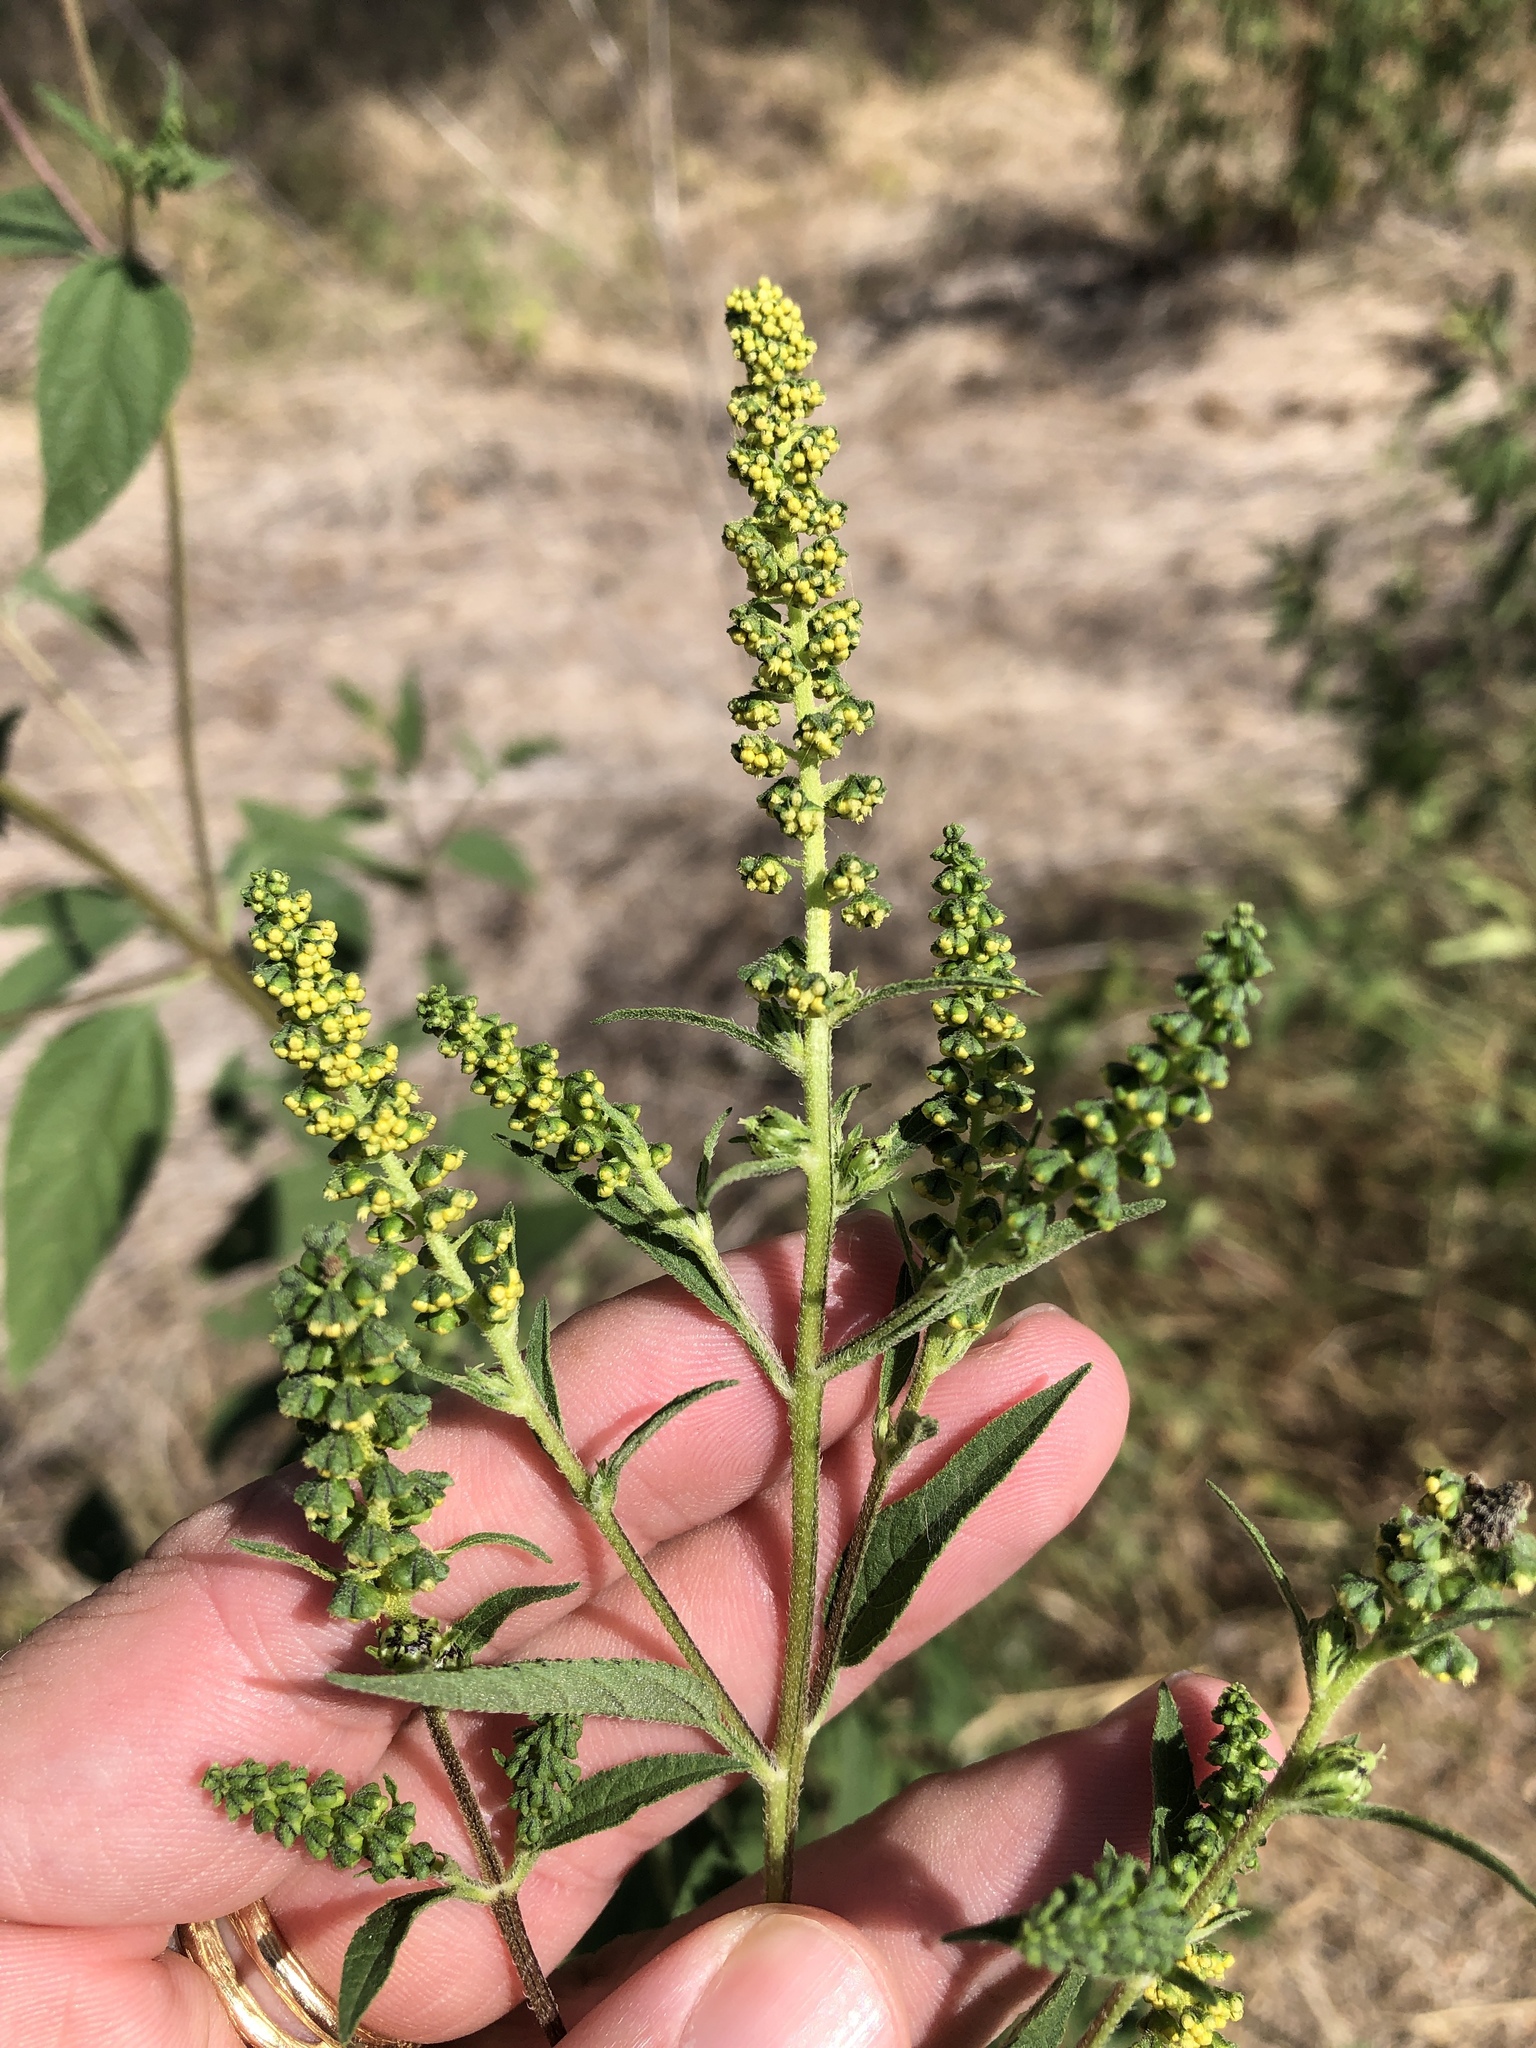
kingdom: Plantae
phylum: Tracheophyta
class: Magnoliopsida
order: Asterales
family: Asteraceae
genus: Ambrosia
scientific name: Ambrosia trifida
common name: Giant ragweed
